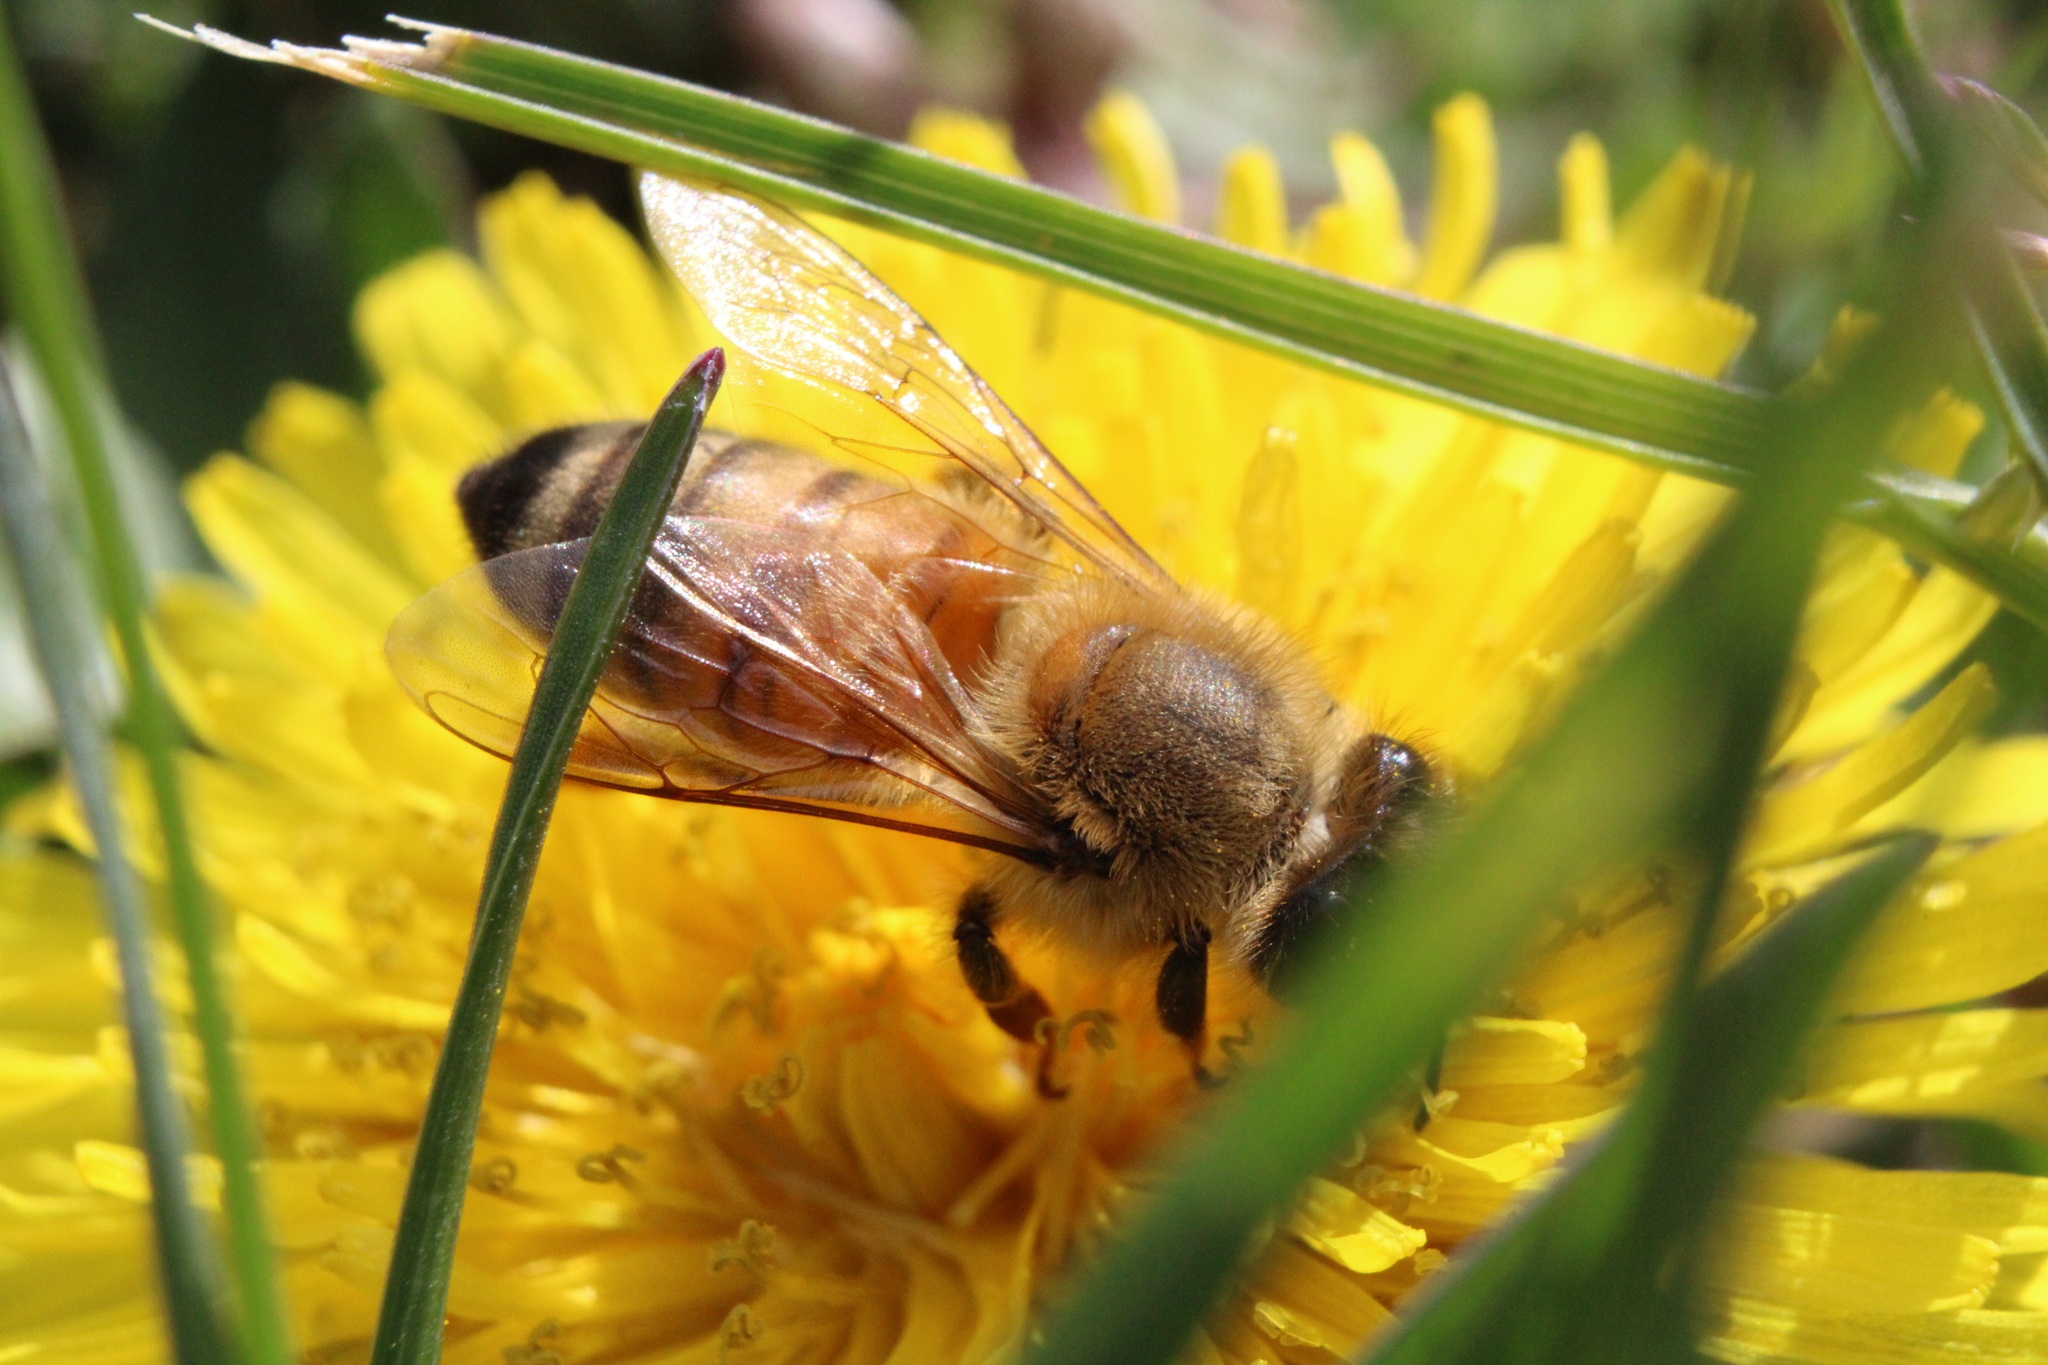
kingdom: Animalia
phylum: Arthropoda
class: Insecta
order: Hymenoptera
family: Apidae
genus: Apis
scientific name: Apis mellifera
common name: Honey bee
